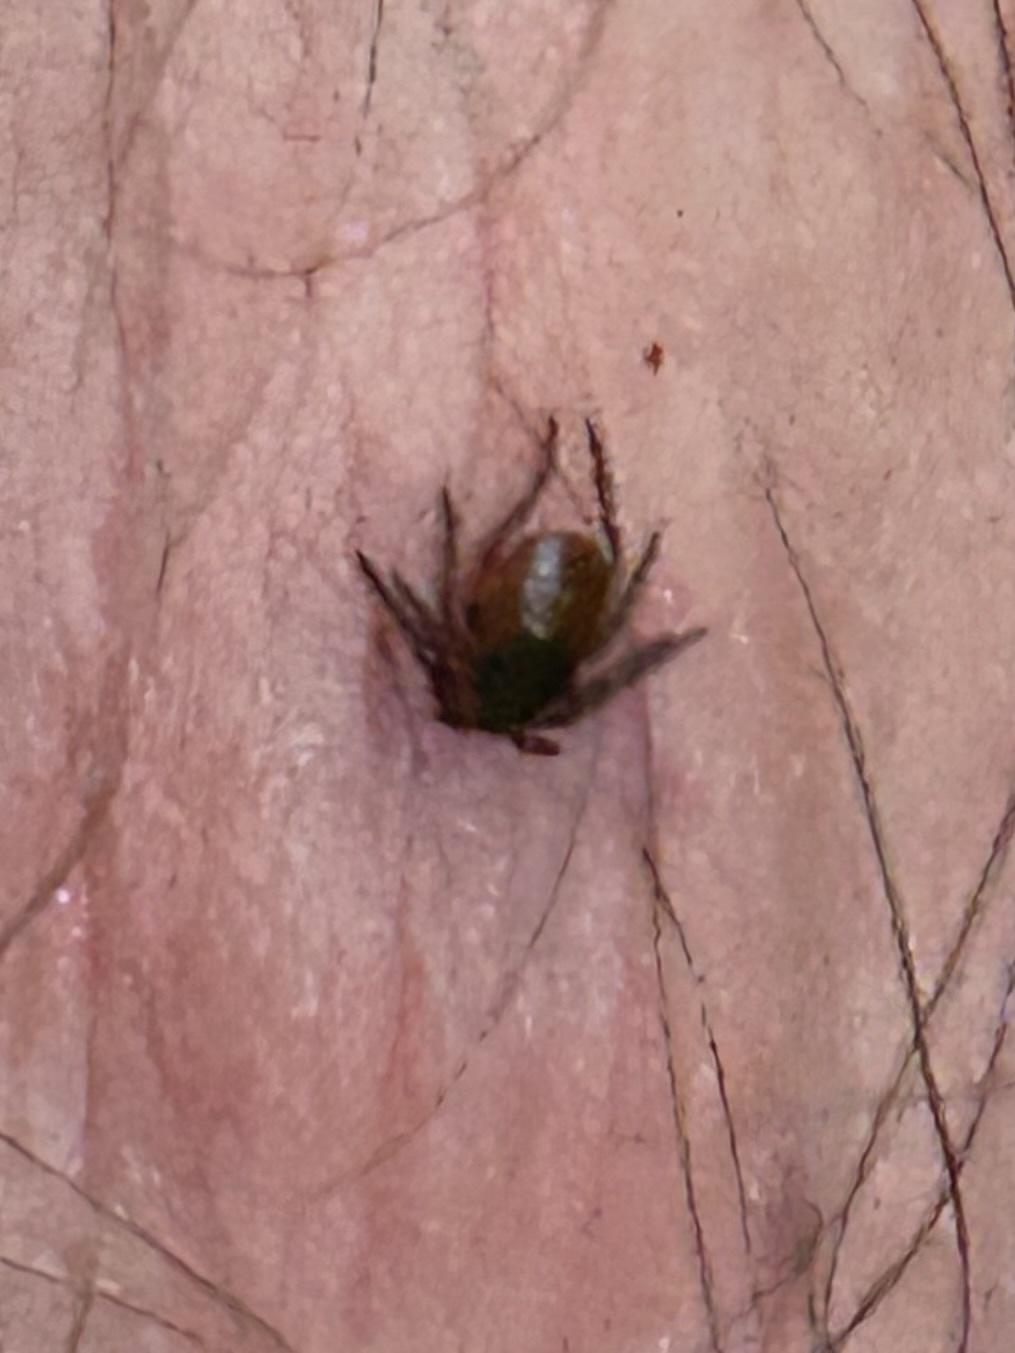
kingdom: Animalia
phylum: Arthropoda
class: Arachnida
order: Ixodida
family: Ixodidae
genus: Ixodes
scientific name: Ixodes scapularis
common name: Black legged tick
